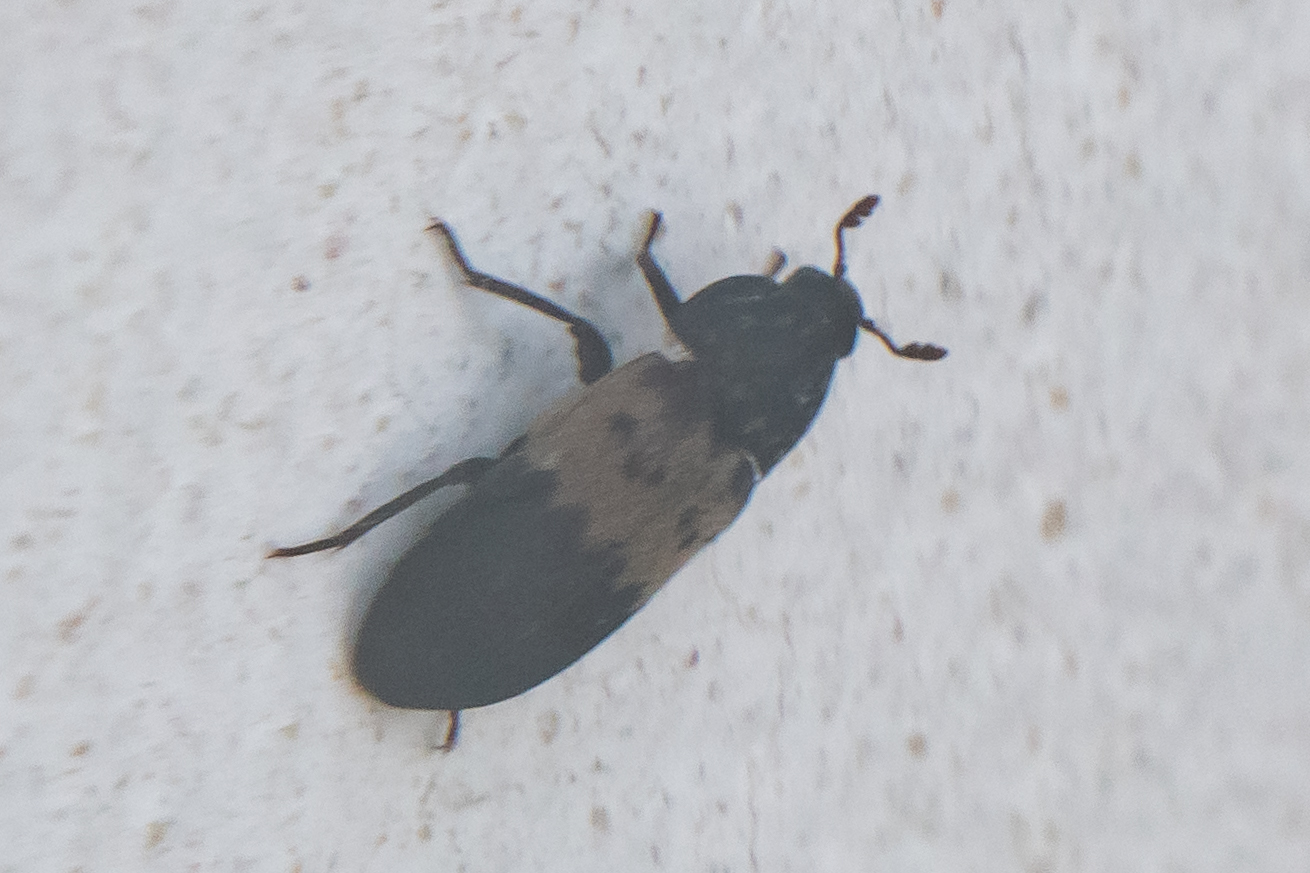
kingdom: Animalia
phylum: Arthropoda
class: Insecta
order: Coleoptera
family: Dermestidae
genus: Dermestes
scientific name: Dermestes lardarius
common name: Larder beetle
